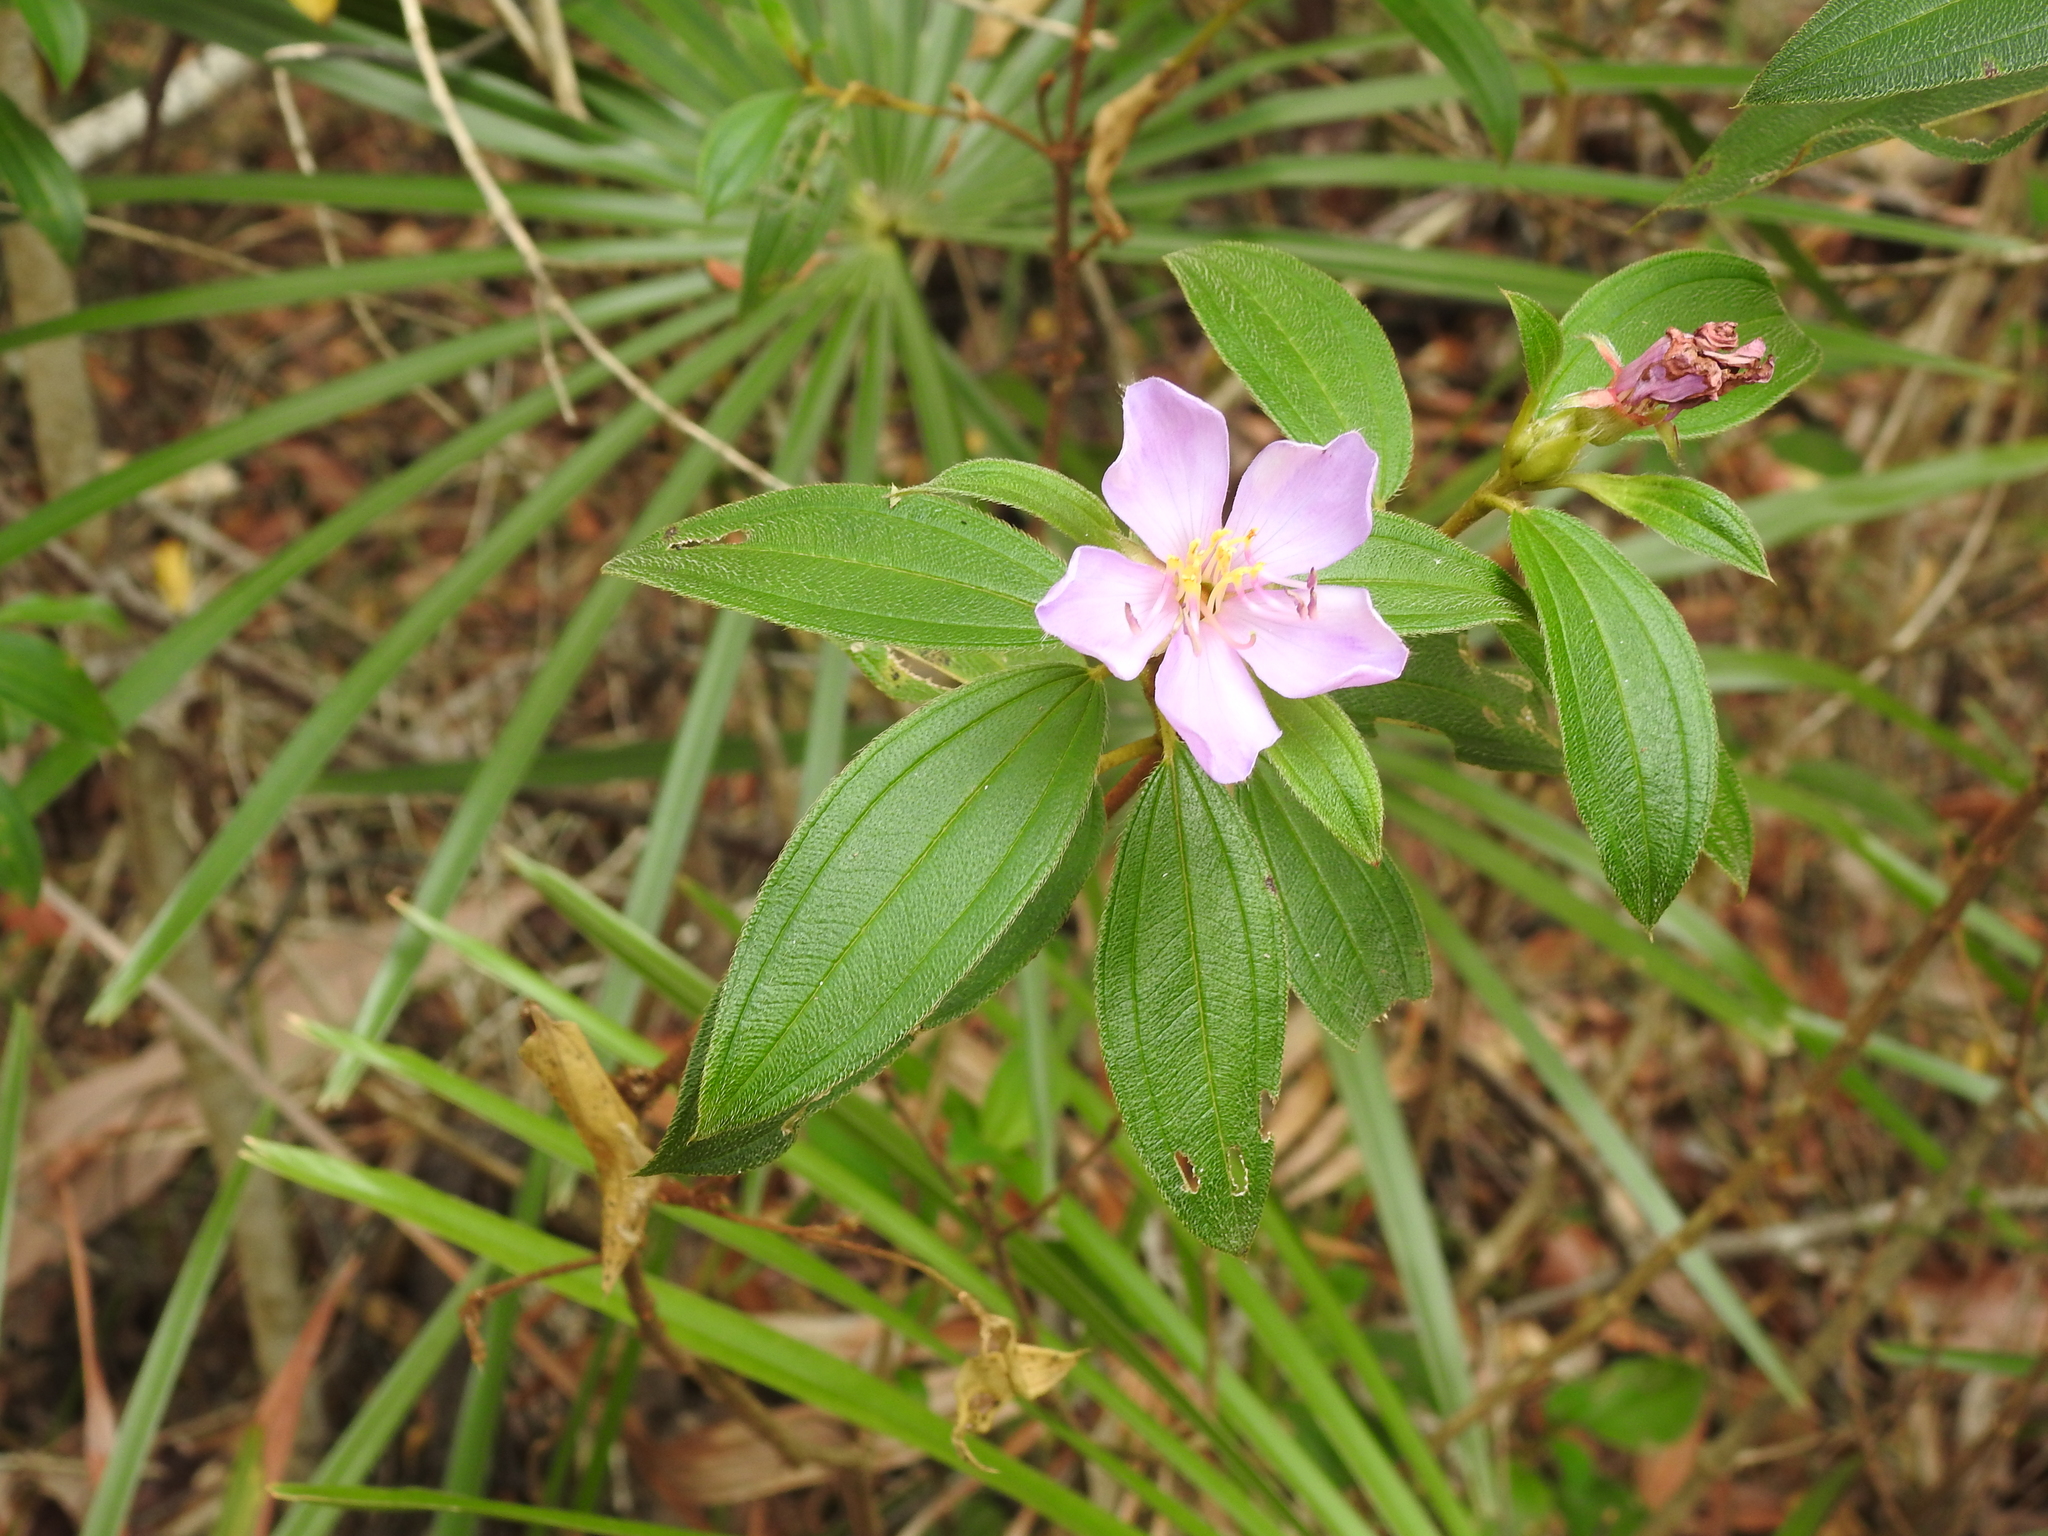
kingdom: Plantae
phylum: Tracheophyta
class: Magnoliopsida
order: Myrtales
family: Melastomataceae
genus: Melastoma
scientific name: Melastoma malabathricum
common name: Indian-rhododendron
